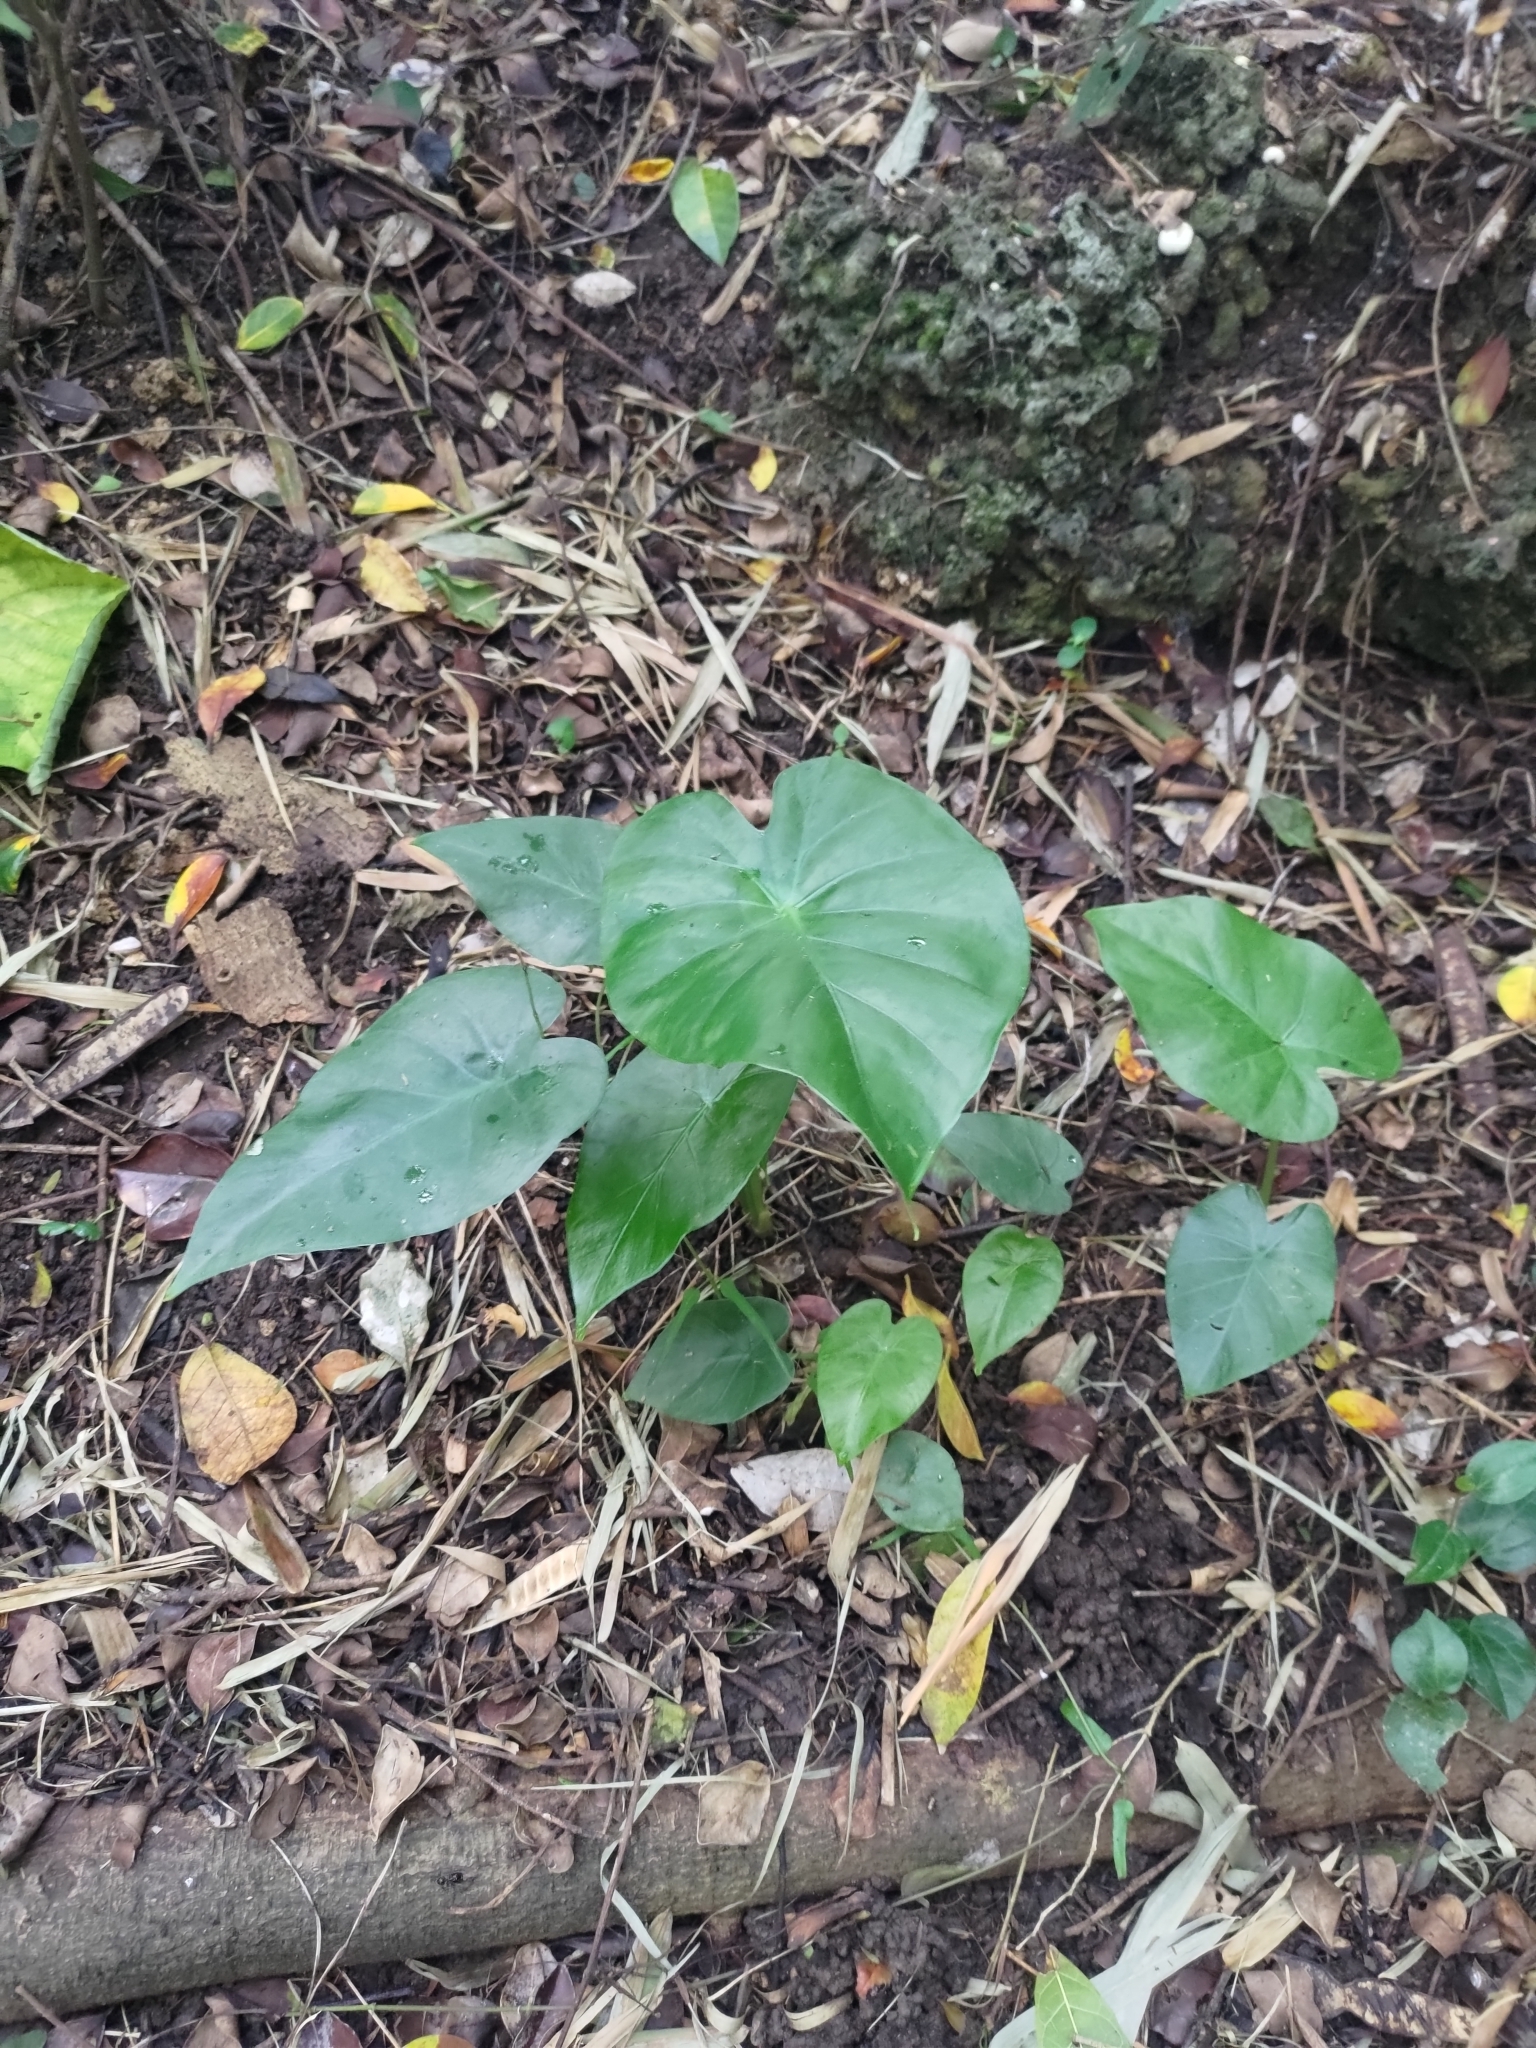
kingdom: Plantae
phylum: Tracheophyta
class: Liliopsida
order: Alismatales
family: Araceae
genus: Alocasia
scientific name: Alocasia odora
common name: Asian taro
